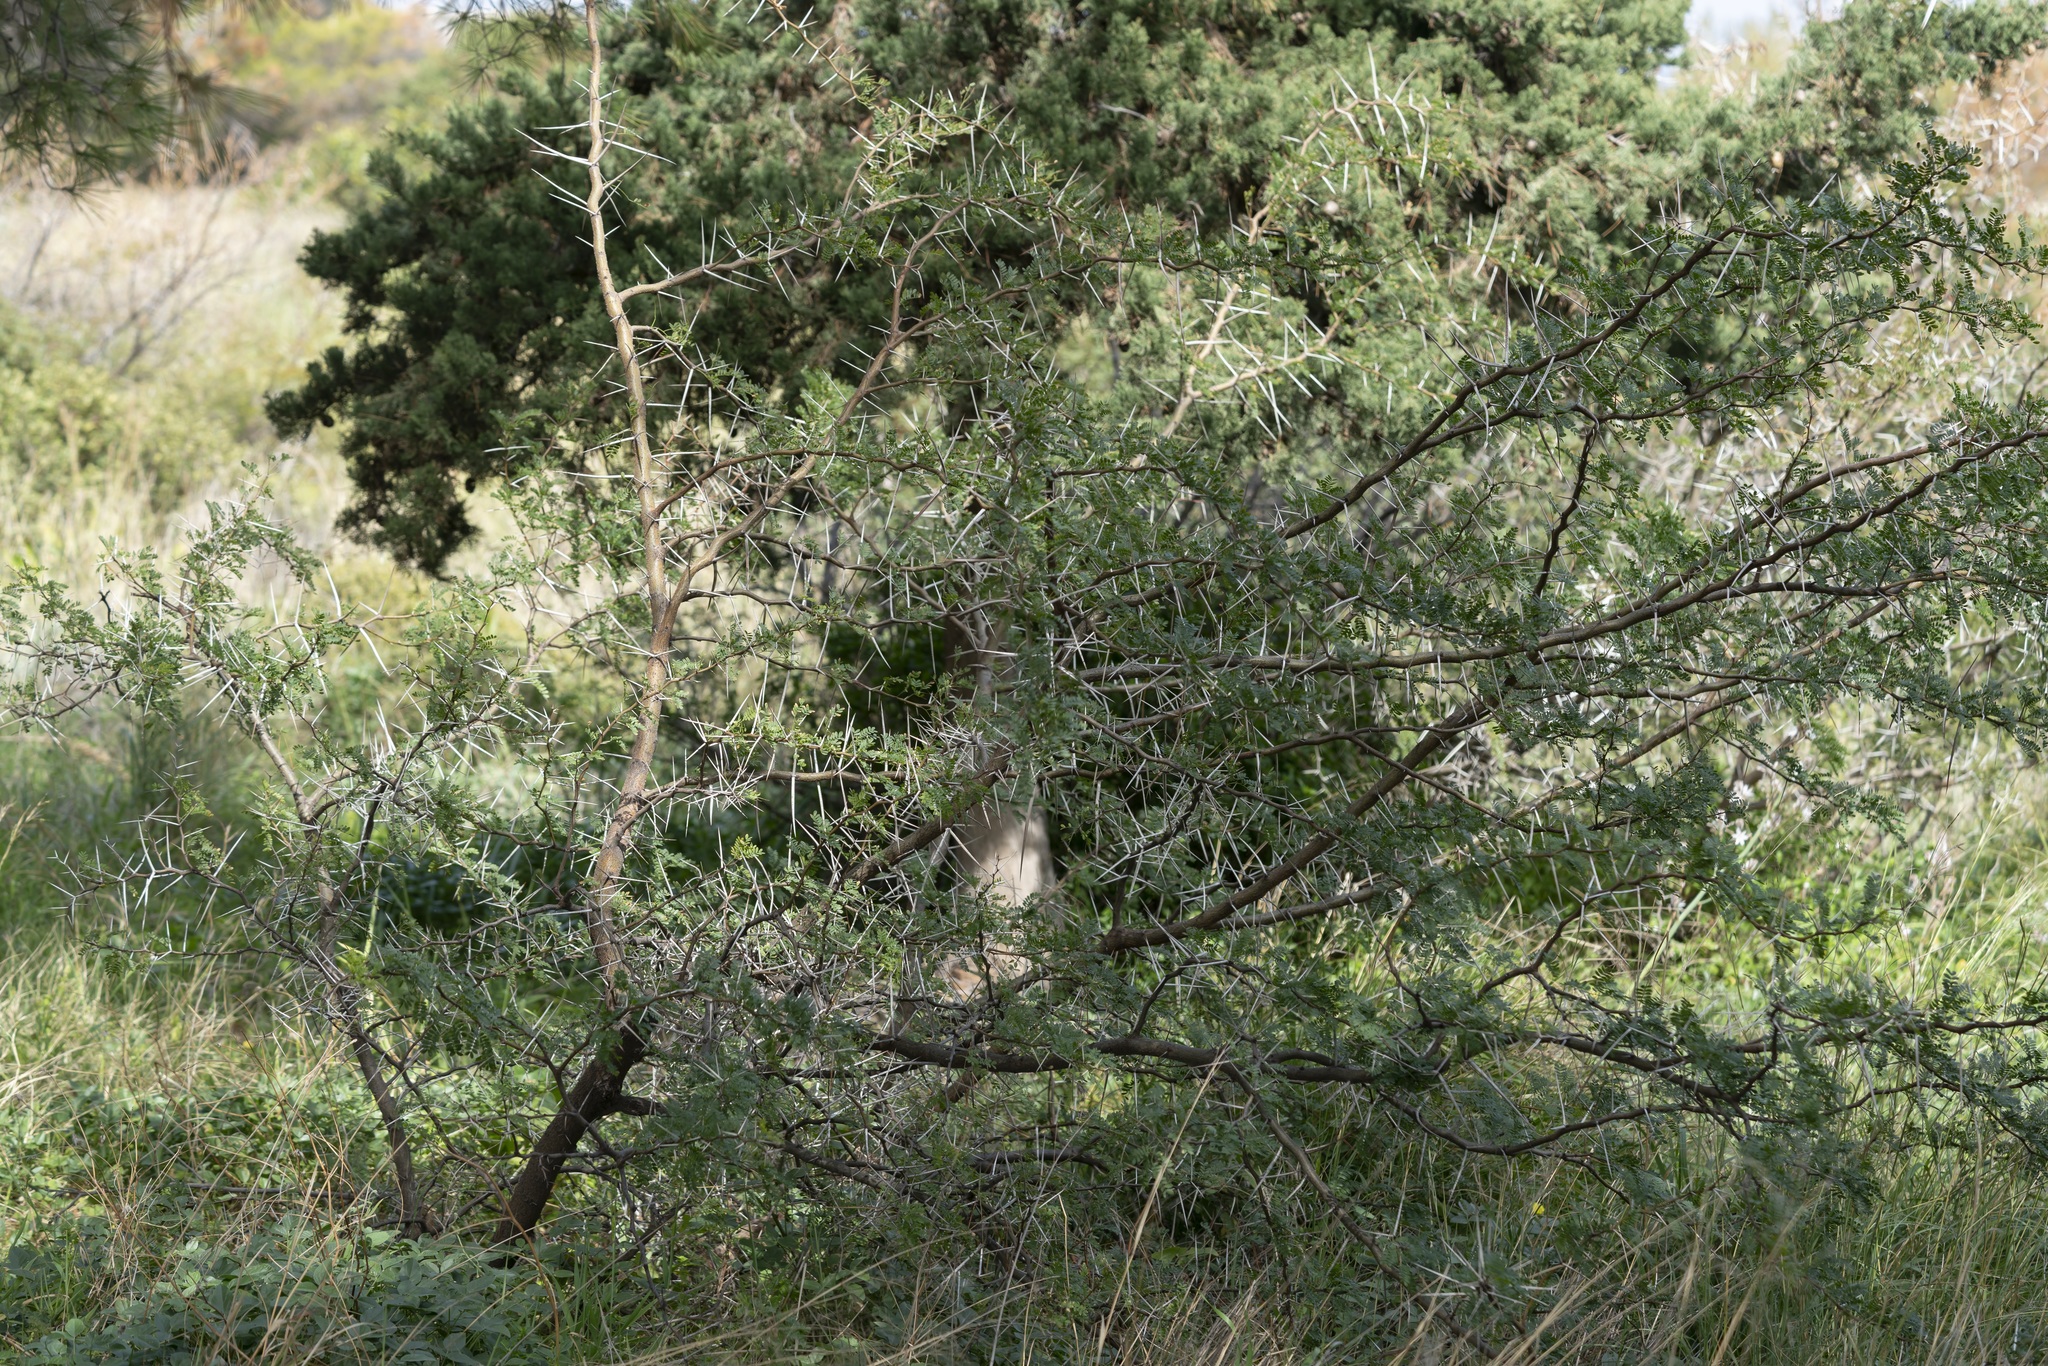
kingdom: Plantae
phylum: Tracheophyta
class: Magnoliopsida
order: Fabales
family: Fabaceae
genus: Vachellia
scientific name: Vachellia karroo
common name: Sweet thorn
